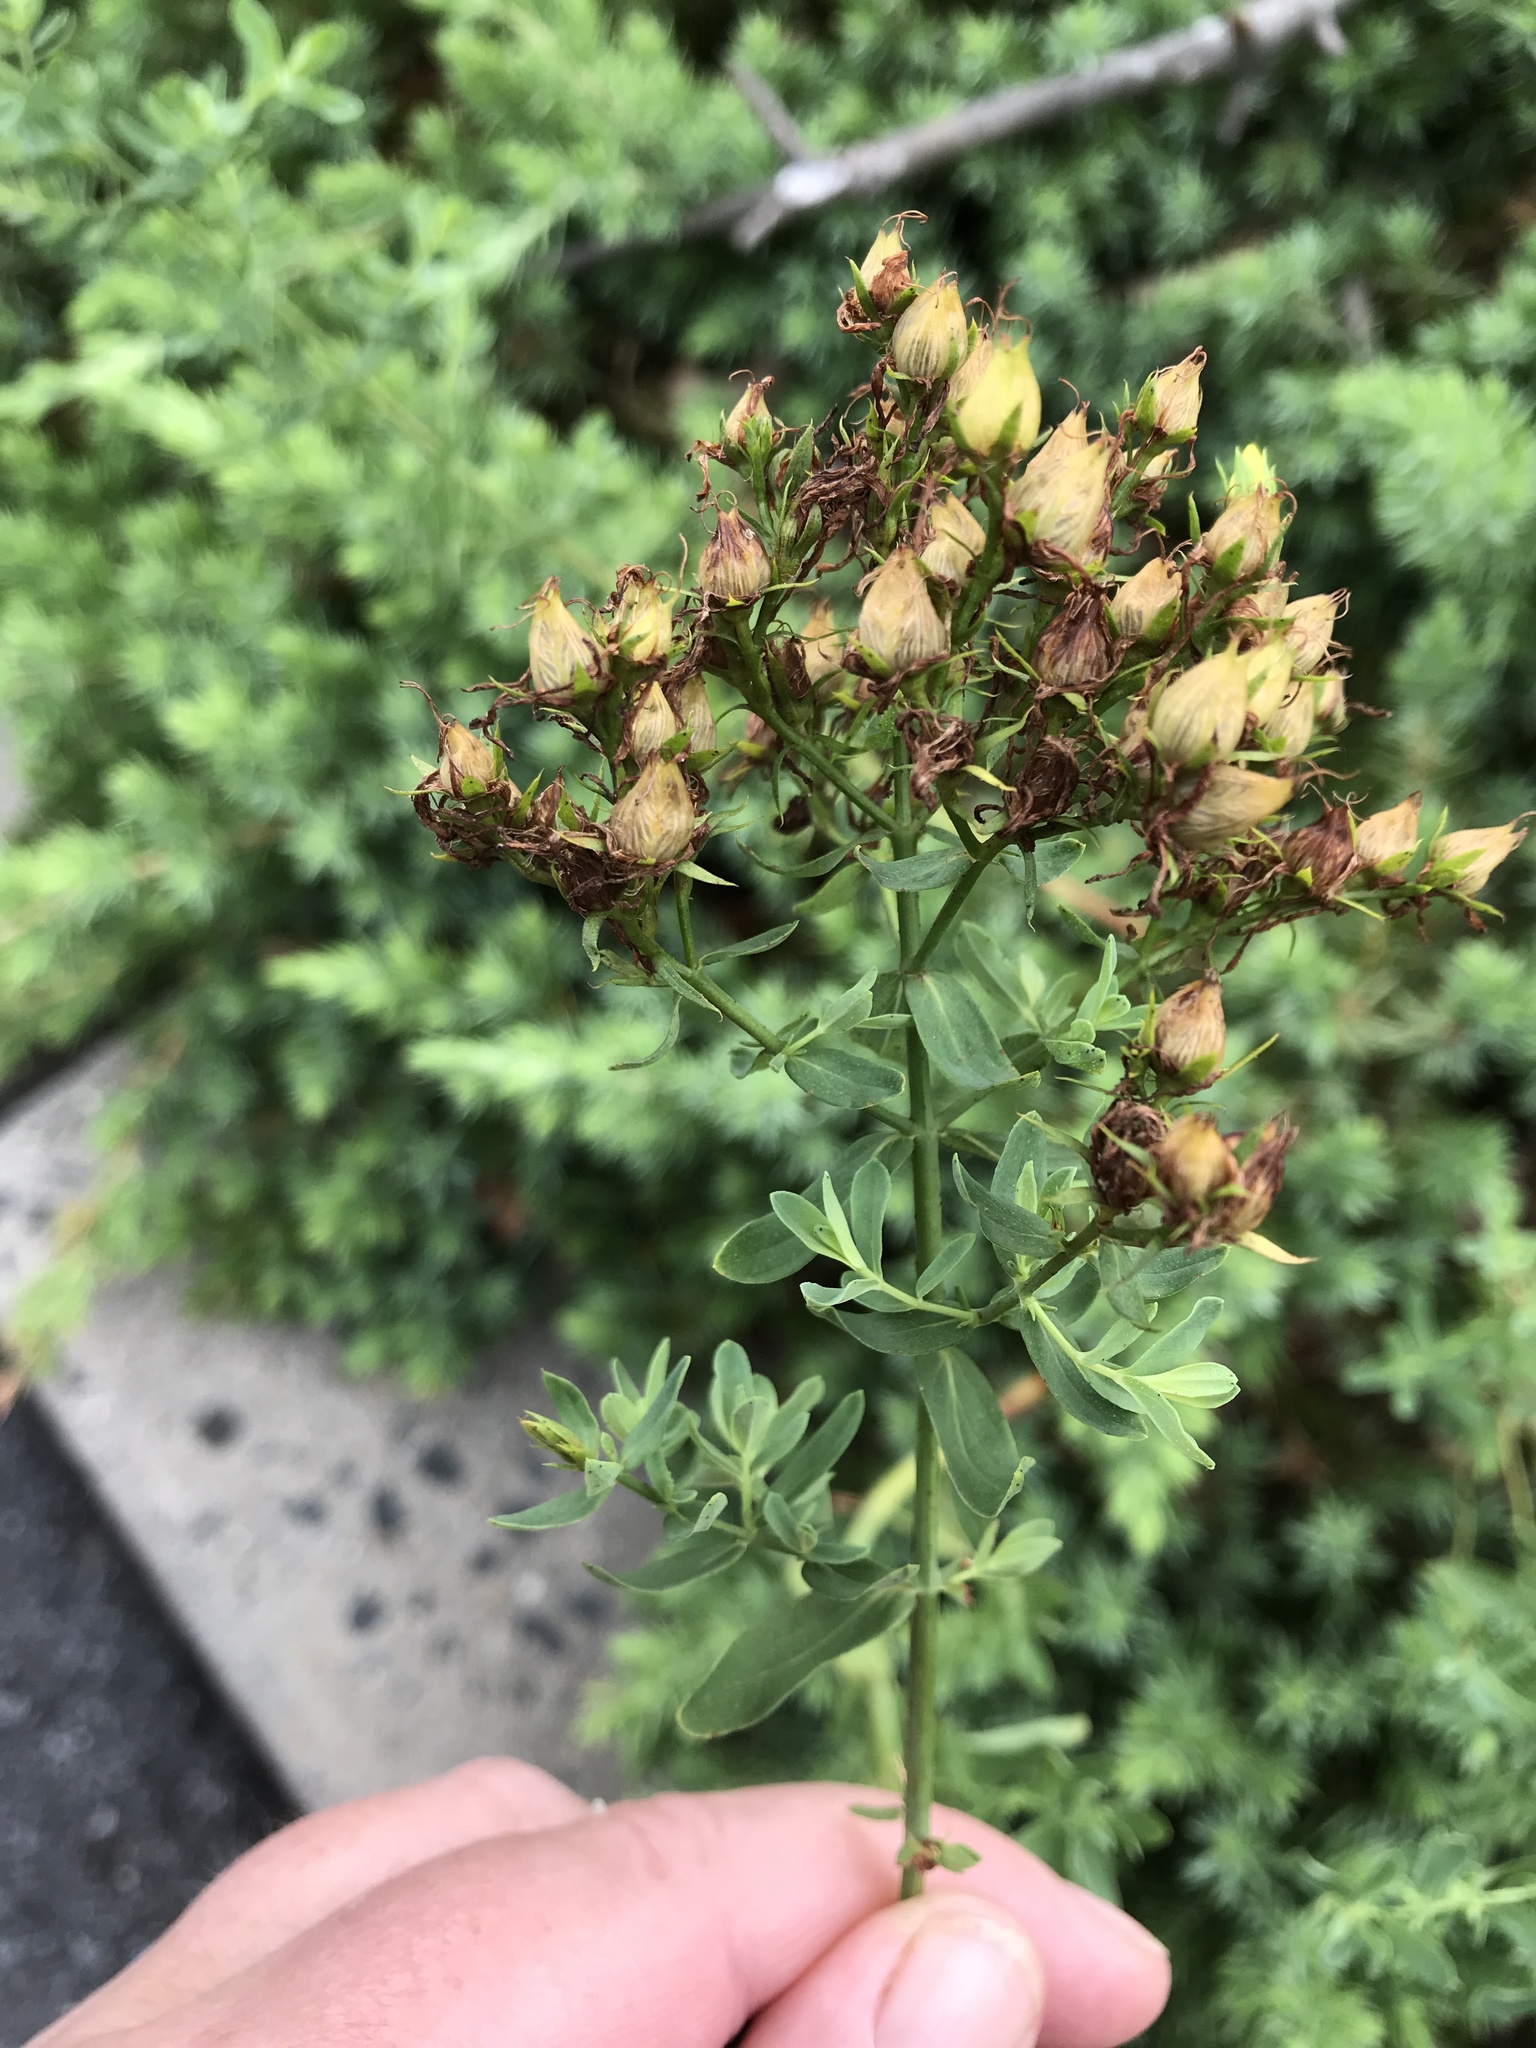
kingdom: Plantae
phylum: Tracheophyta
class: Magnoliopsida
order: Malpighiales
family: Hypericaceae
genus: Hypericum
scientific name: Hypericum perforatum
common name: Common st. johnswort
